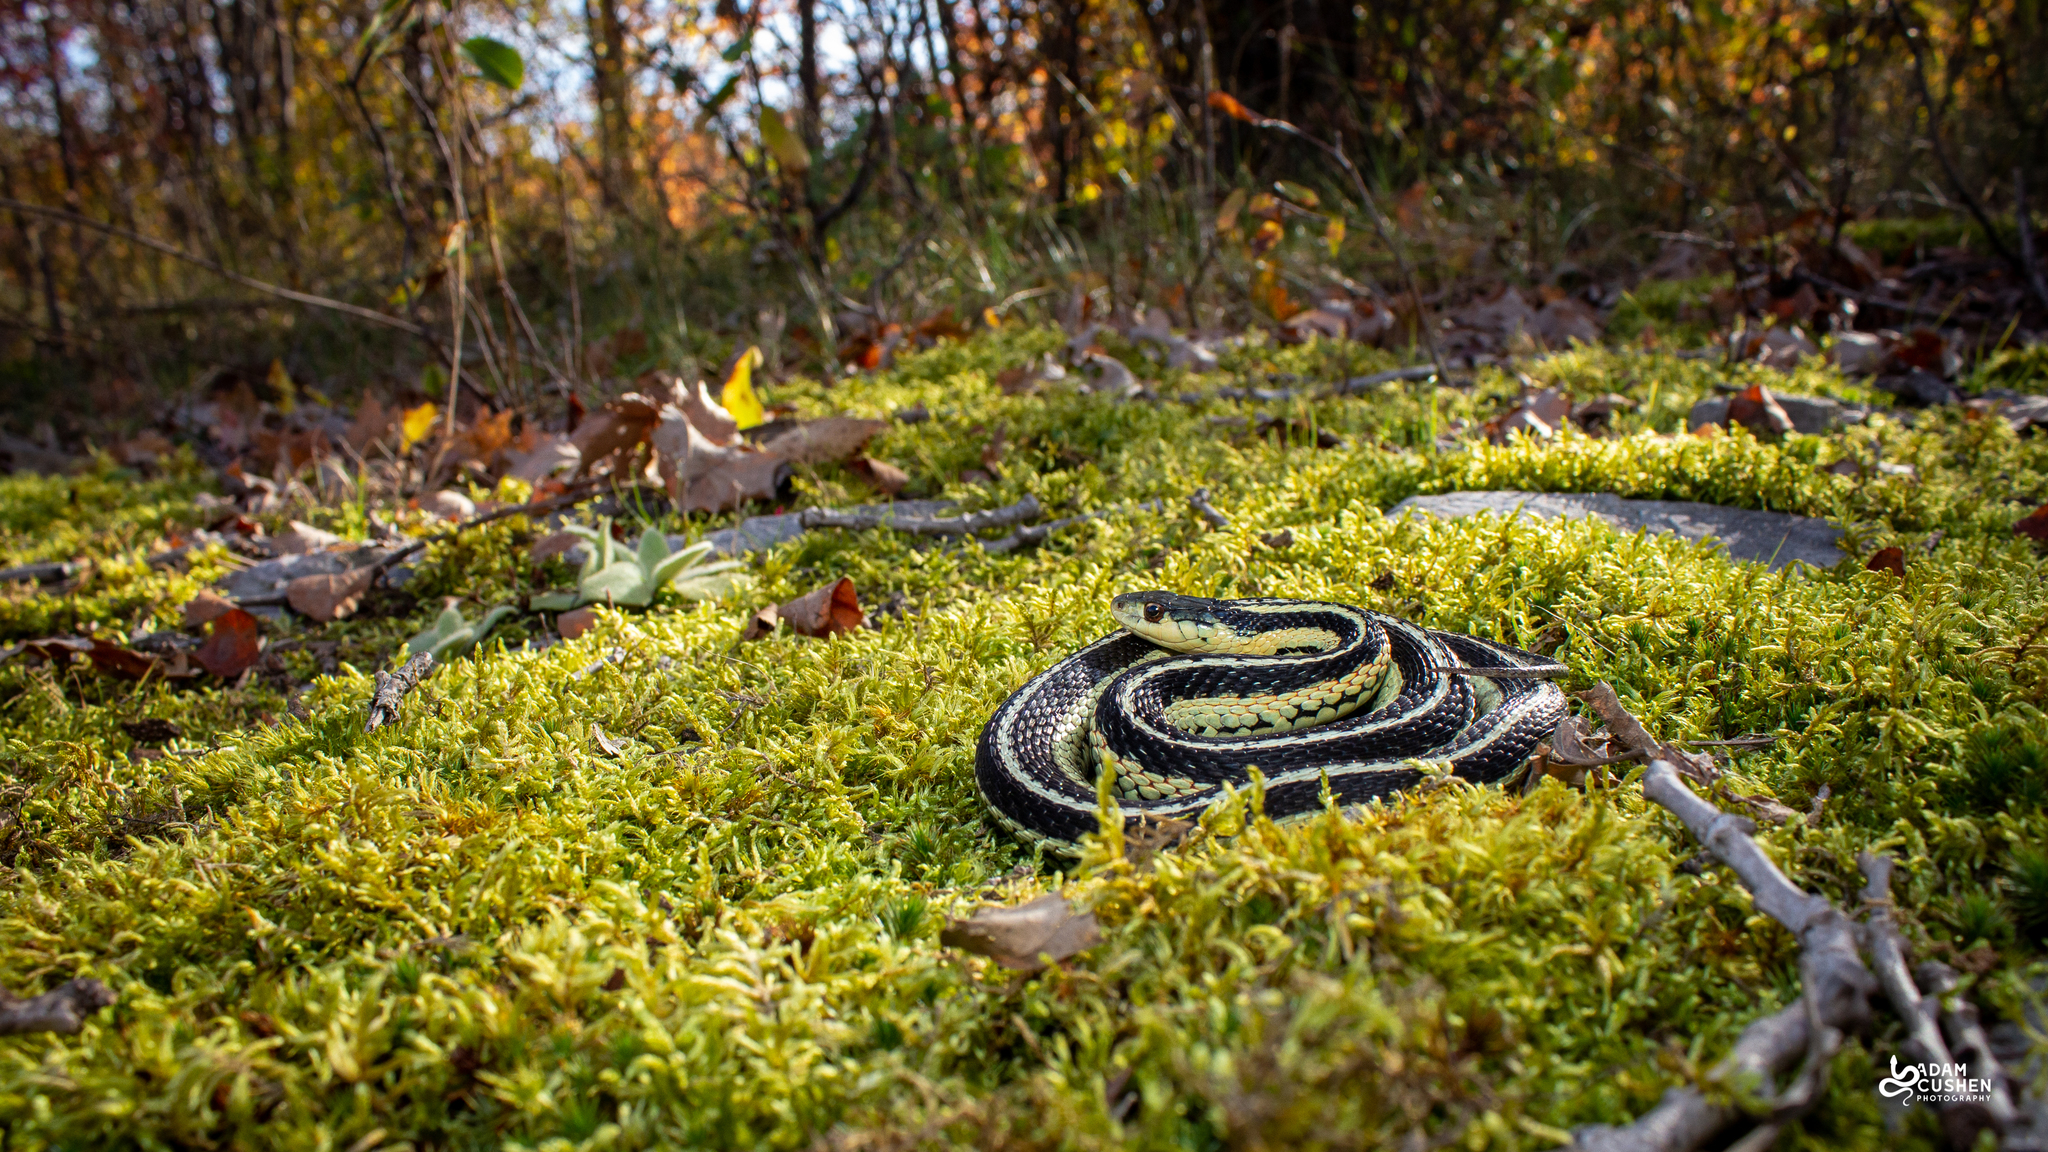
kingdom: Animalia
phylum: Chordata
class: Squamata
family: Colubridae
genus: Thamnophis
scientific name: Thamnophis sirtalis
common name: Common garter snake
